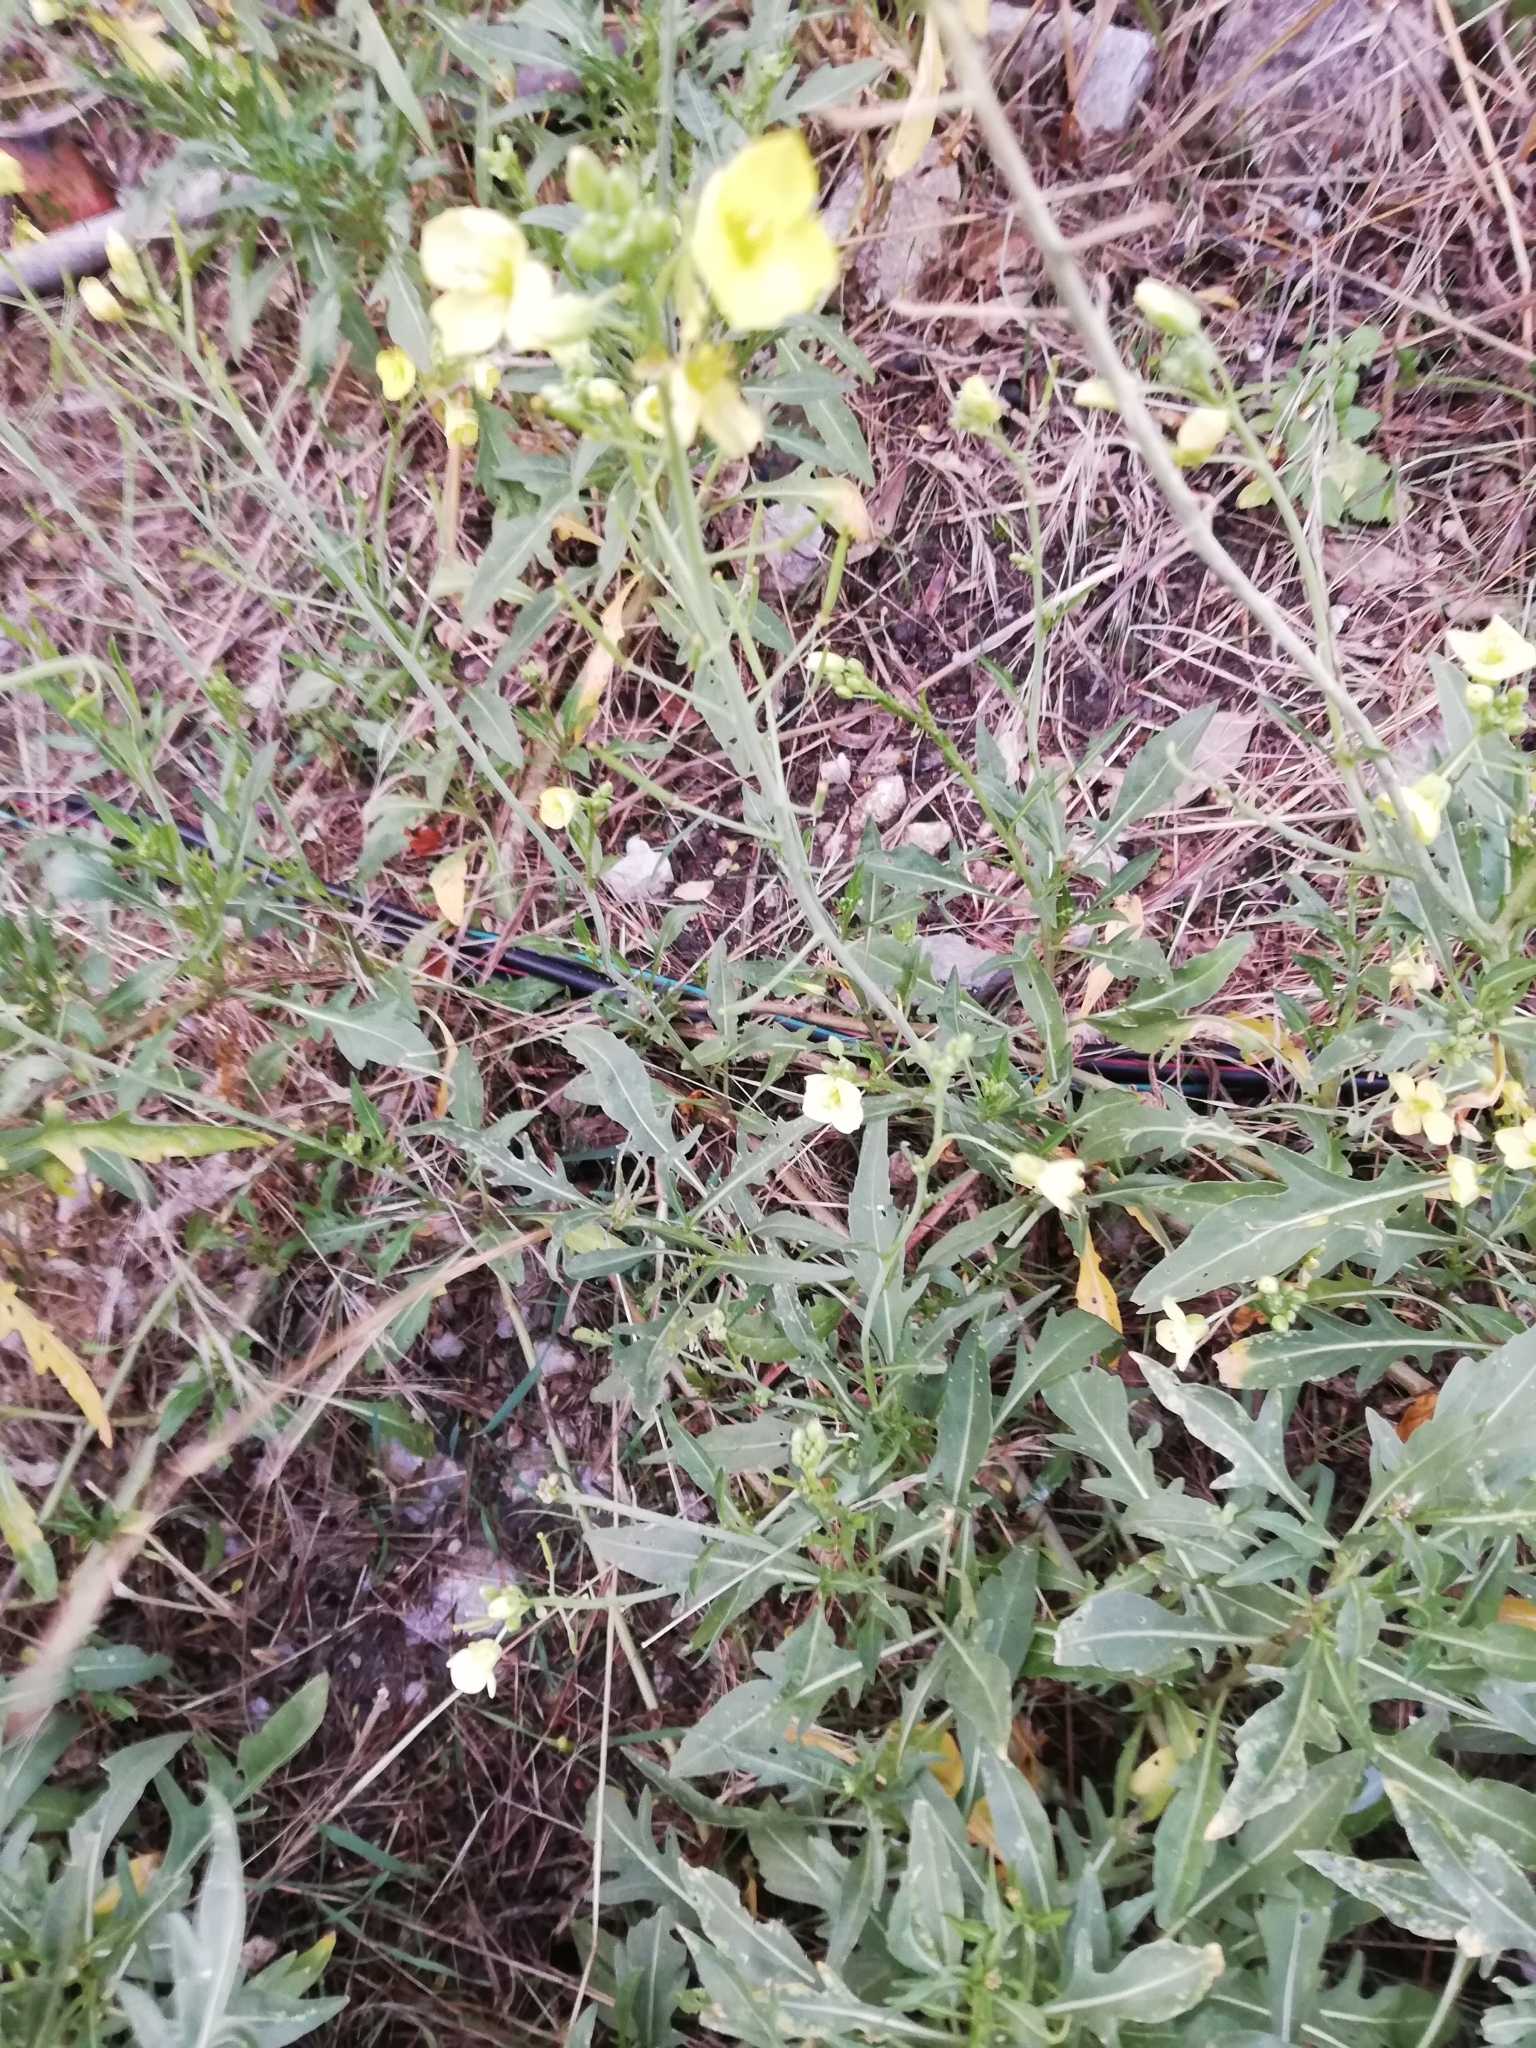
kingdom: Plantae
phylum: Tracheophyta
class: Magnoliopsida
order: Brassicales
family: Brassicaceae
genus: Diplotaxis
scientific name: Diplotaxis tenuifolia
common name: Perennial wall-rocket
